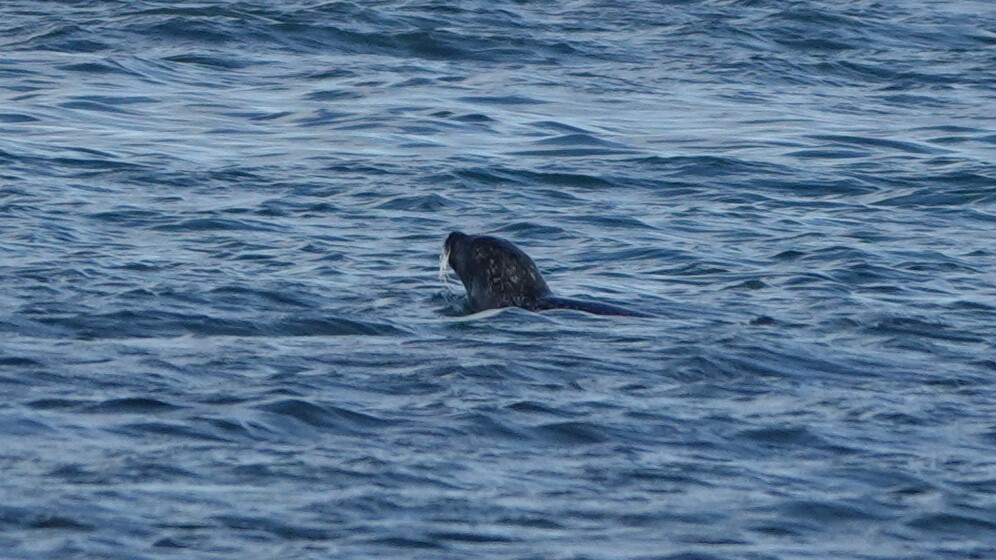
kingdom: Animalia
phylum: Chordata
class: Mammalia
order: Carnivora
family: Phocidae
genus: Phoca
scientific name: Phoca vitulina
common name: Harbor seal
